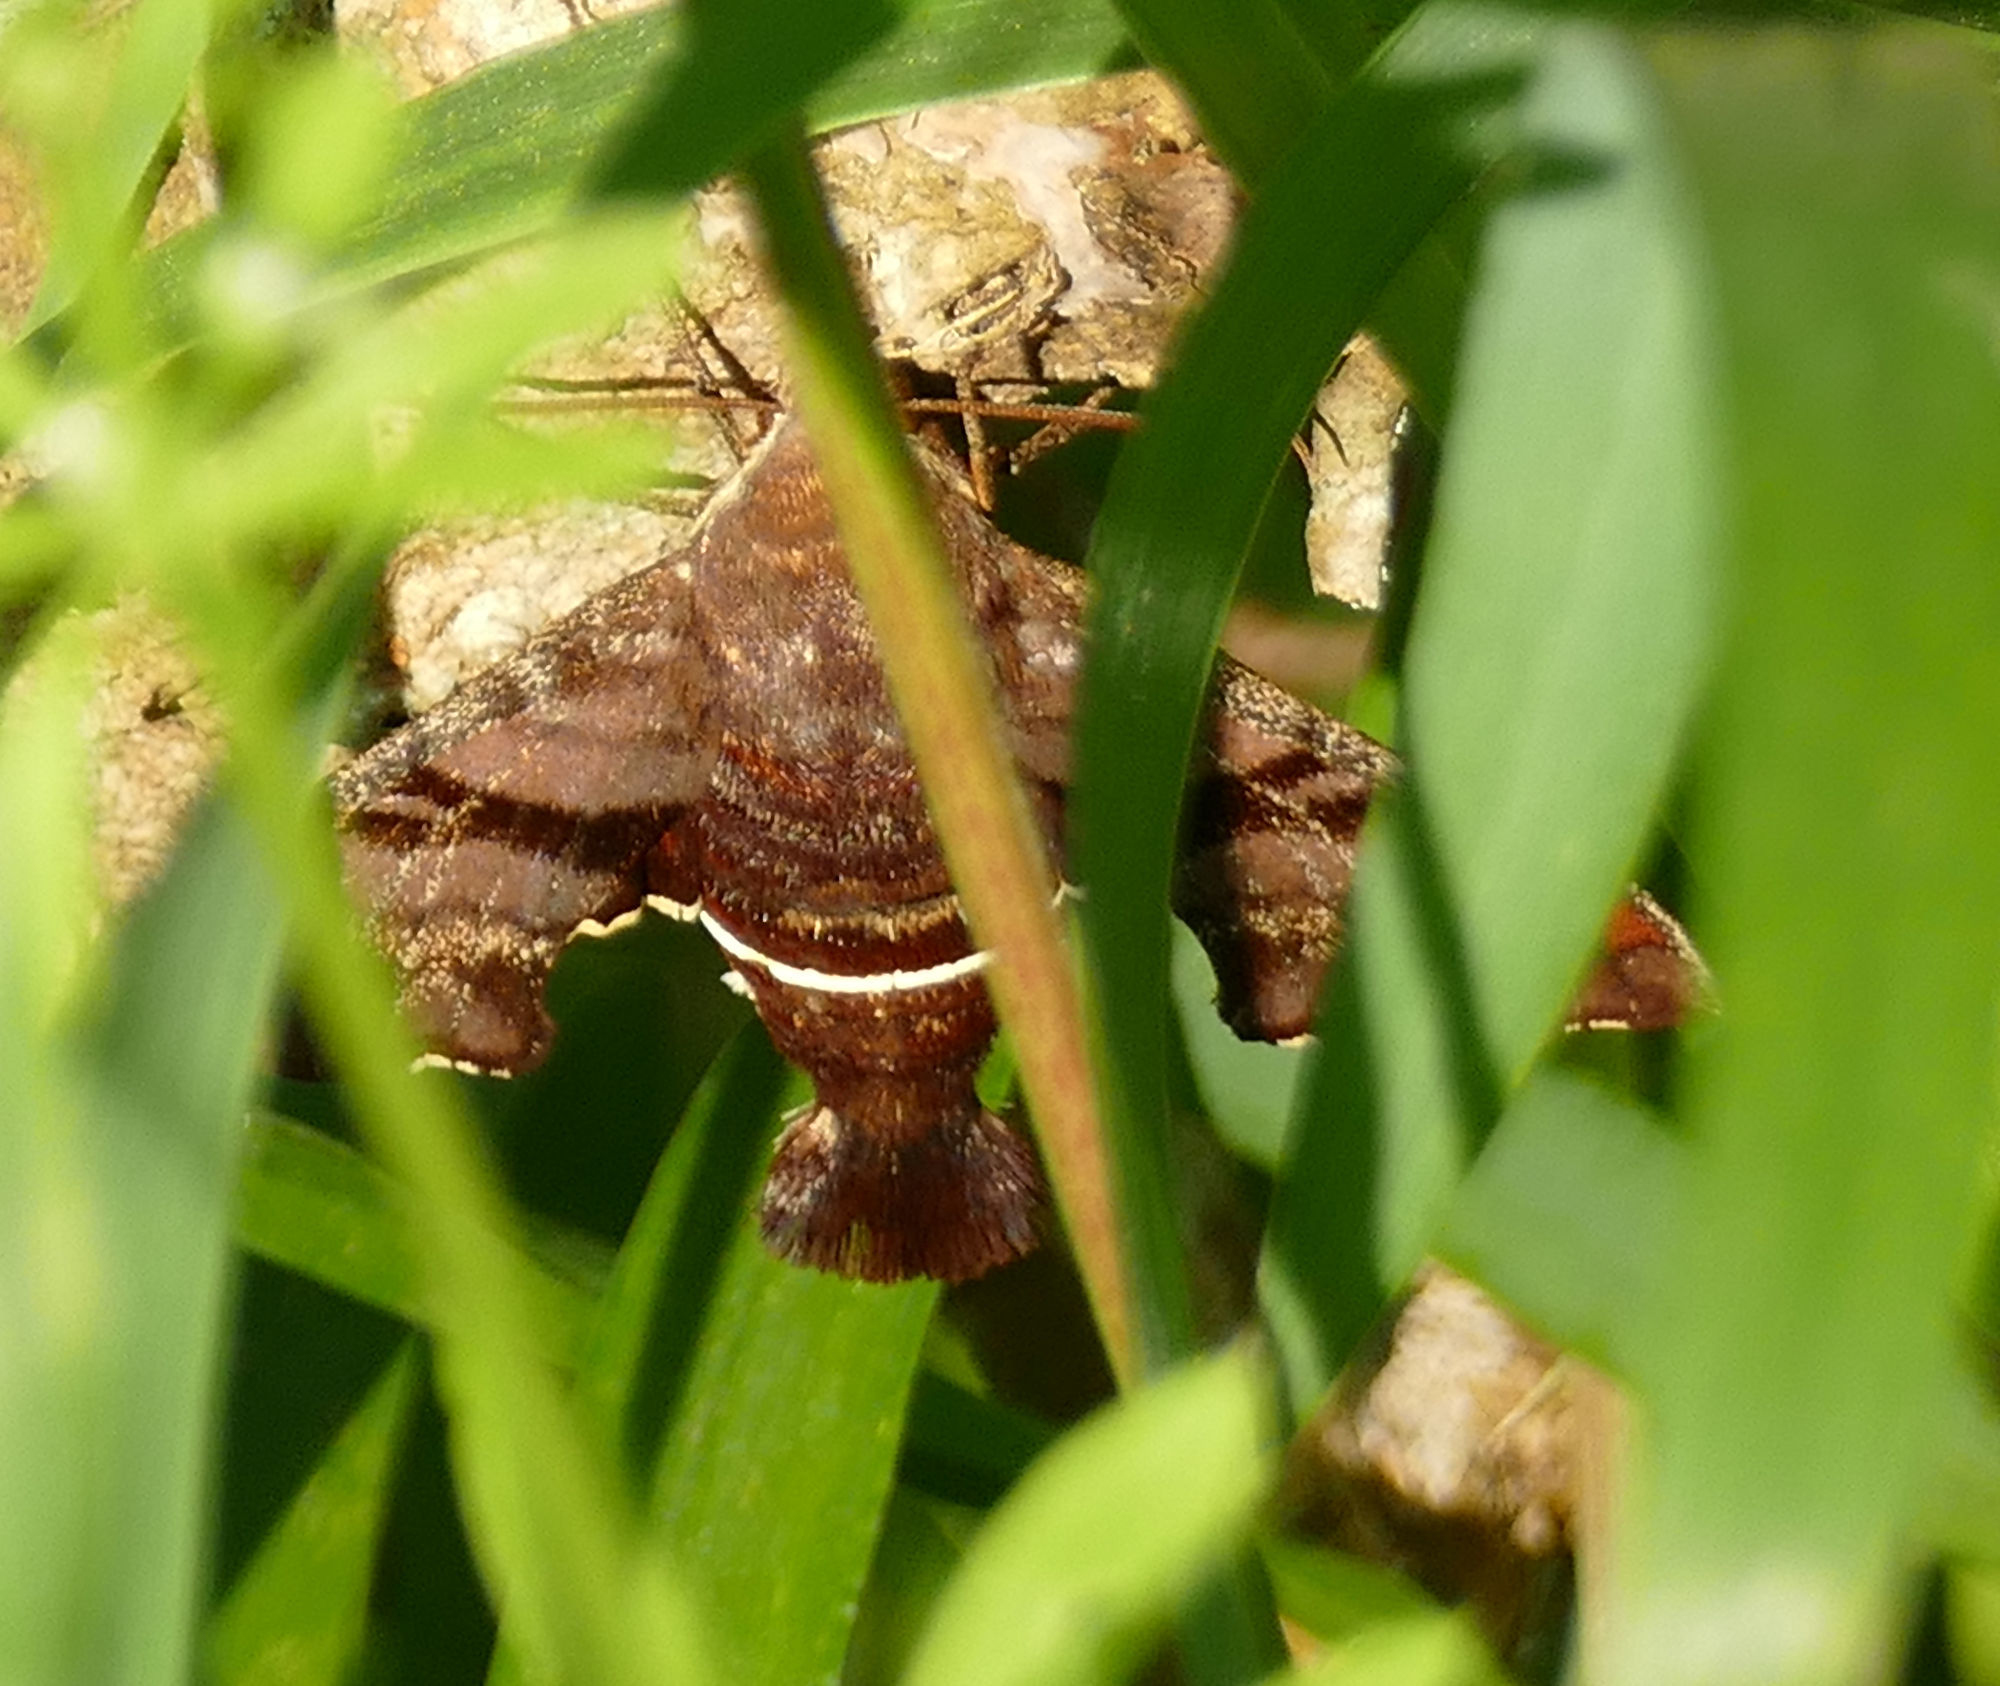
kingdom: Animalia
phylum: Arthropoda
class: Insecta
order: Lepidoptera
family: Sphingidae
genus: Amphion
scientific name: Amphion floridensis
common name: Nessus sphinx
